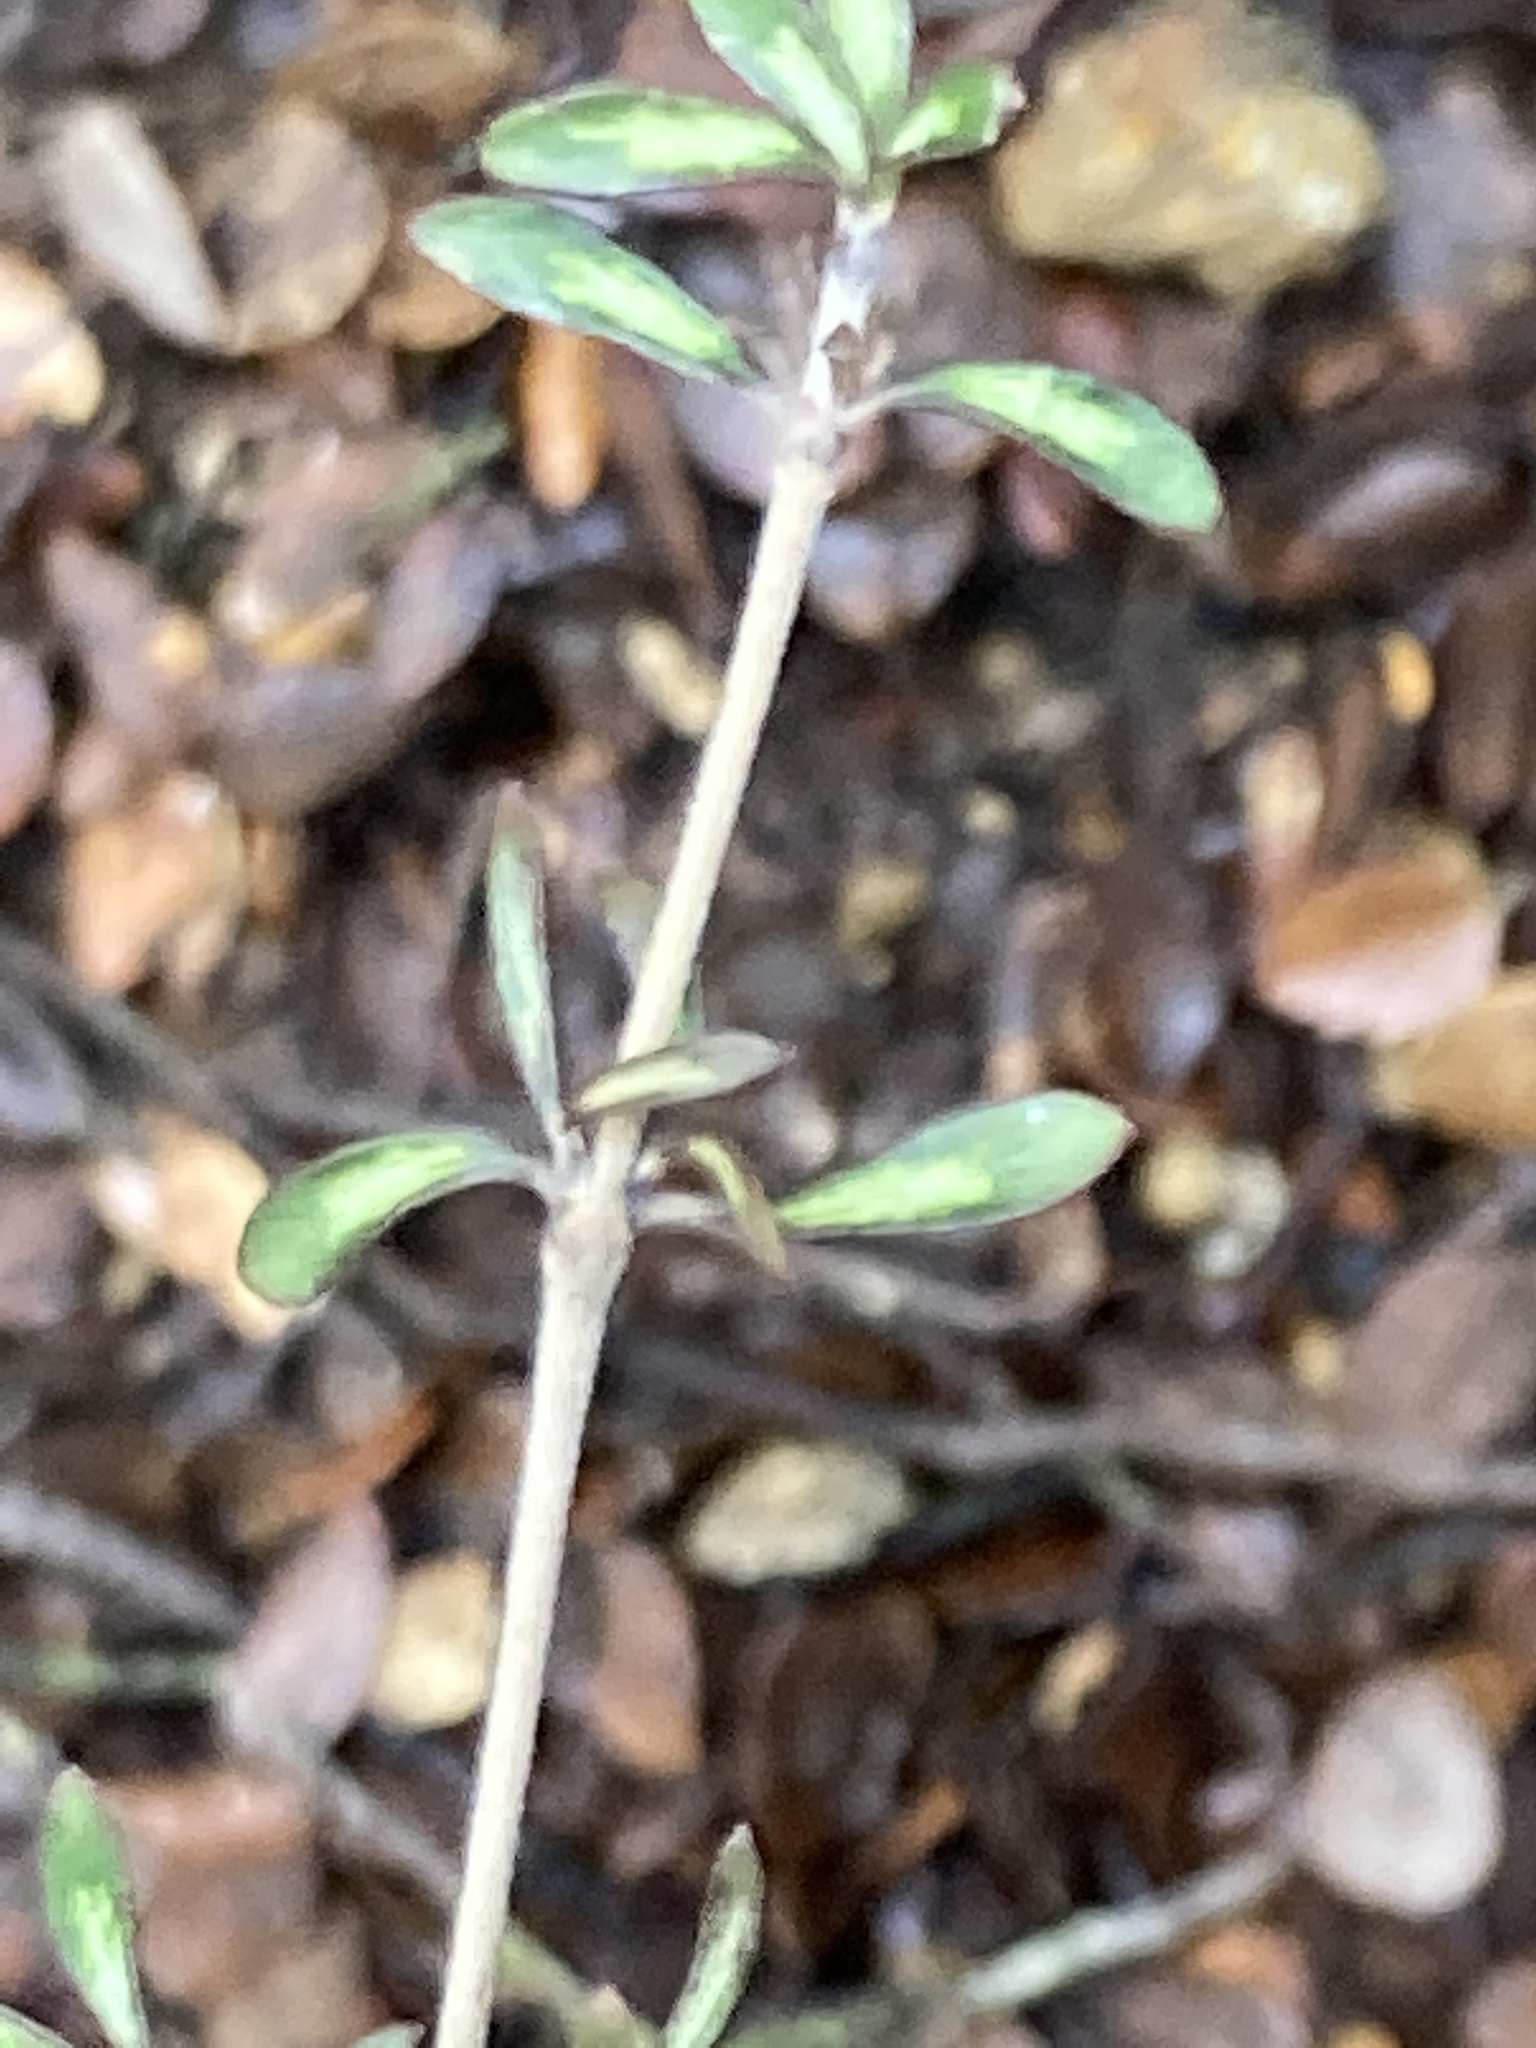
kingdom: Plantae
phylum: Tracheophyta
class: Magnoliopsida
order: Gentianales
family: Rubiaceae
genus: Coprosma
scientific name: Coprosma dumosa
